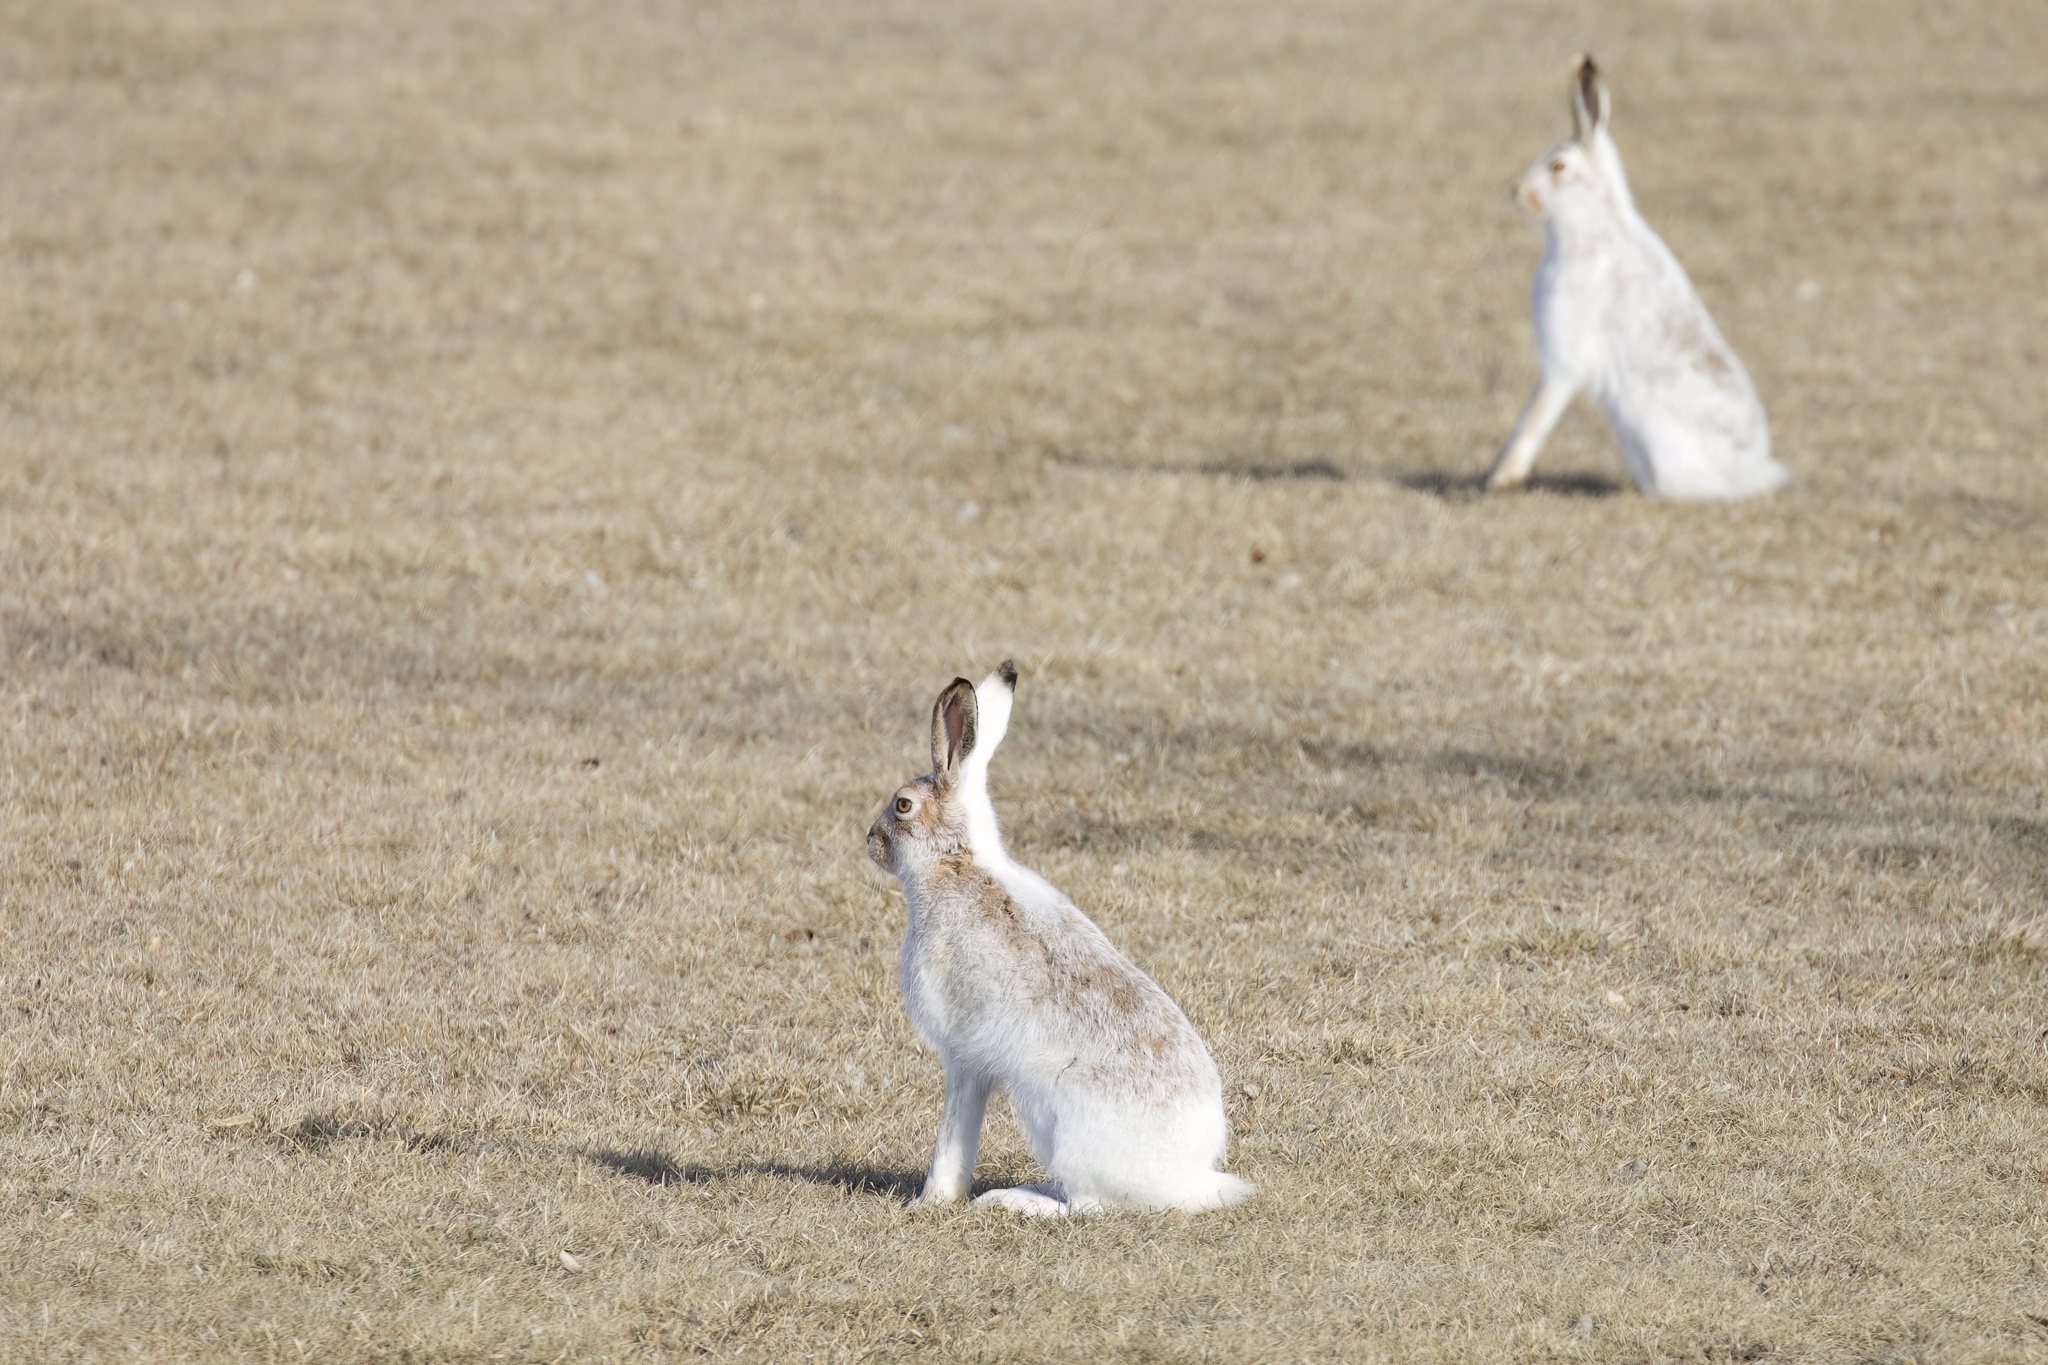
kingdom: Animalia
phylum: Chordata
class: Mammalia
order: Lagomorpha
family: Leporidae
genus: Lepus
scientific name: Lepus townsendii
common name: White-tailed jackrabbit
